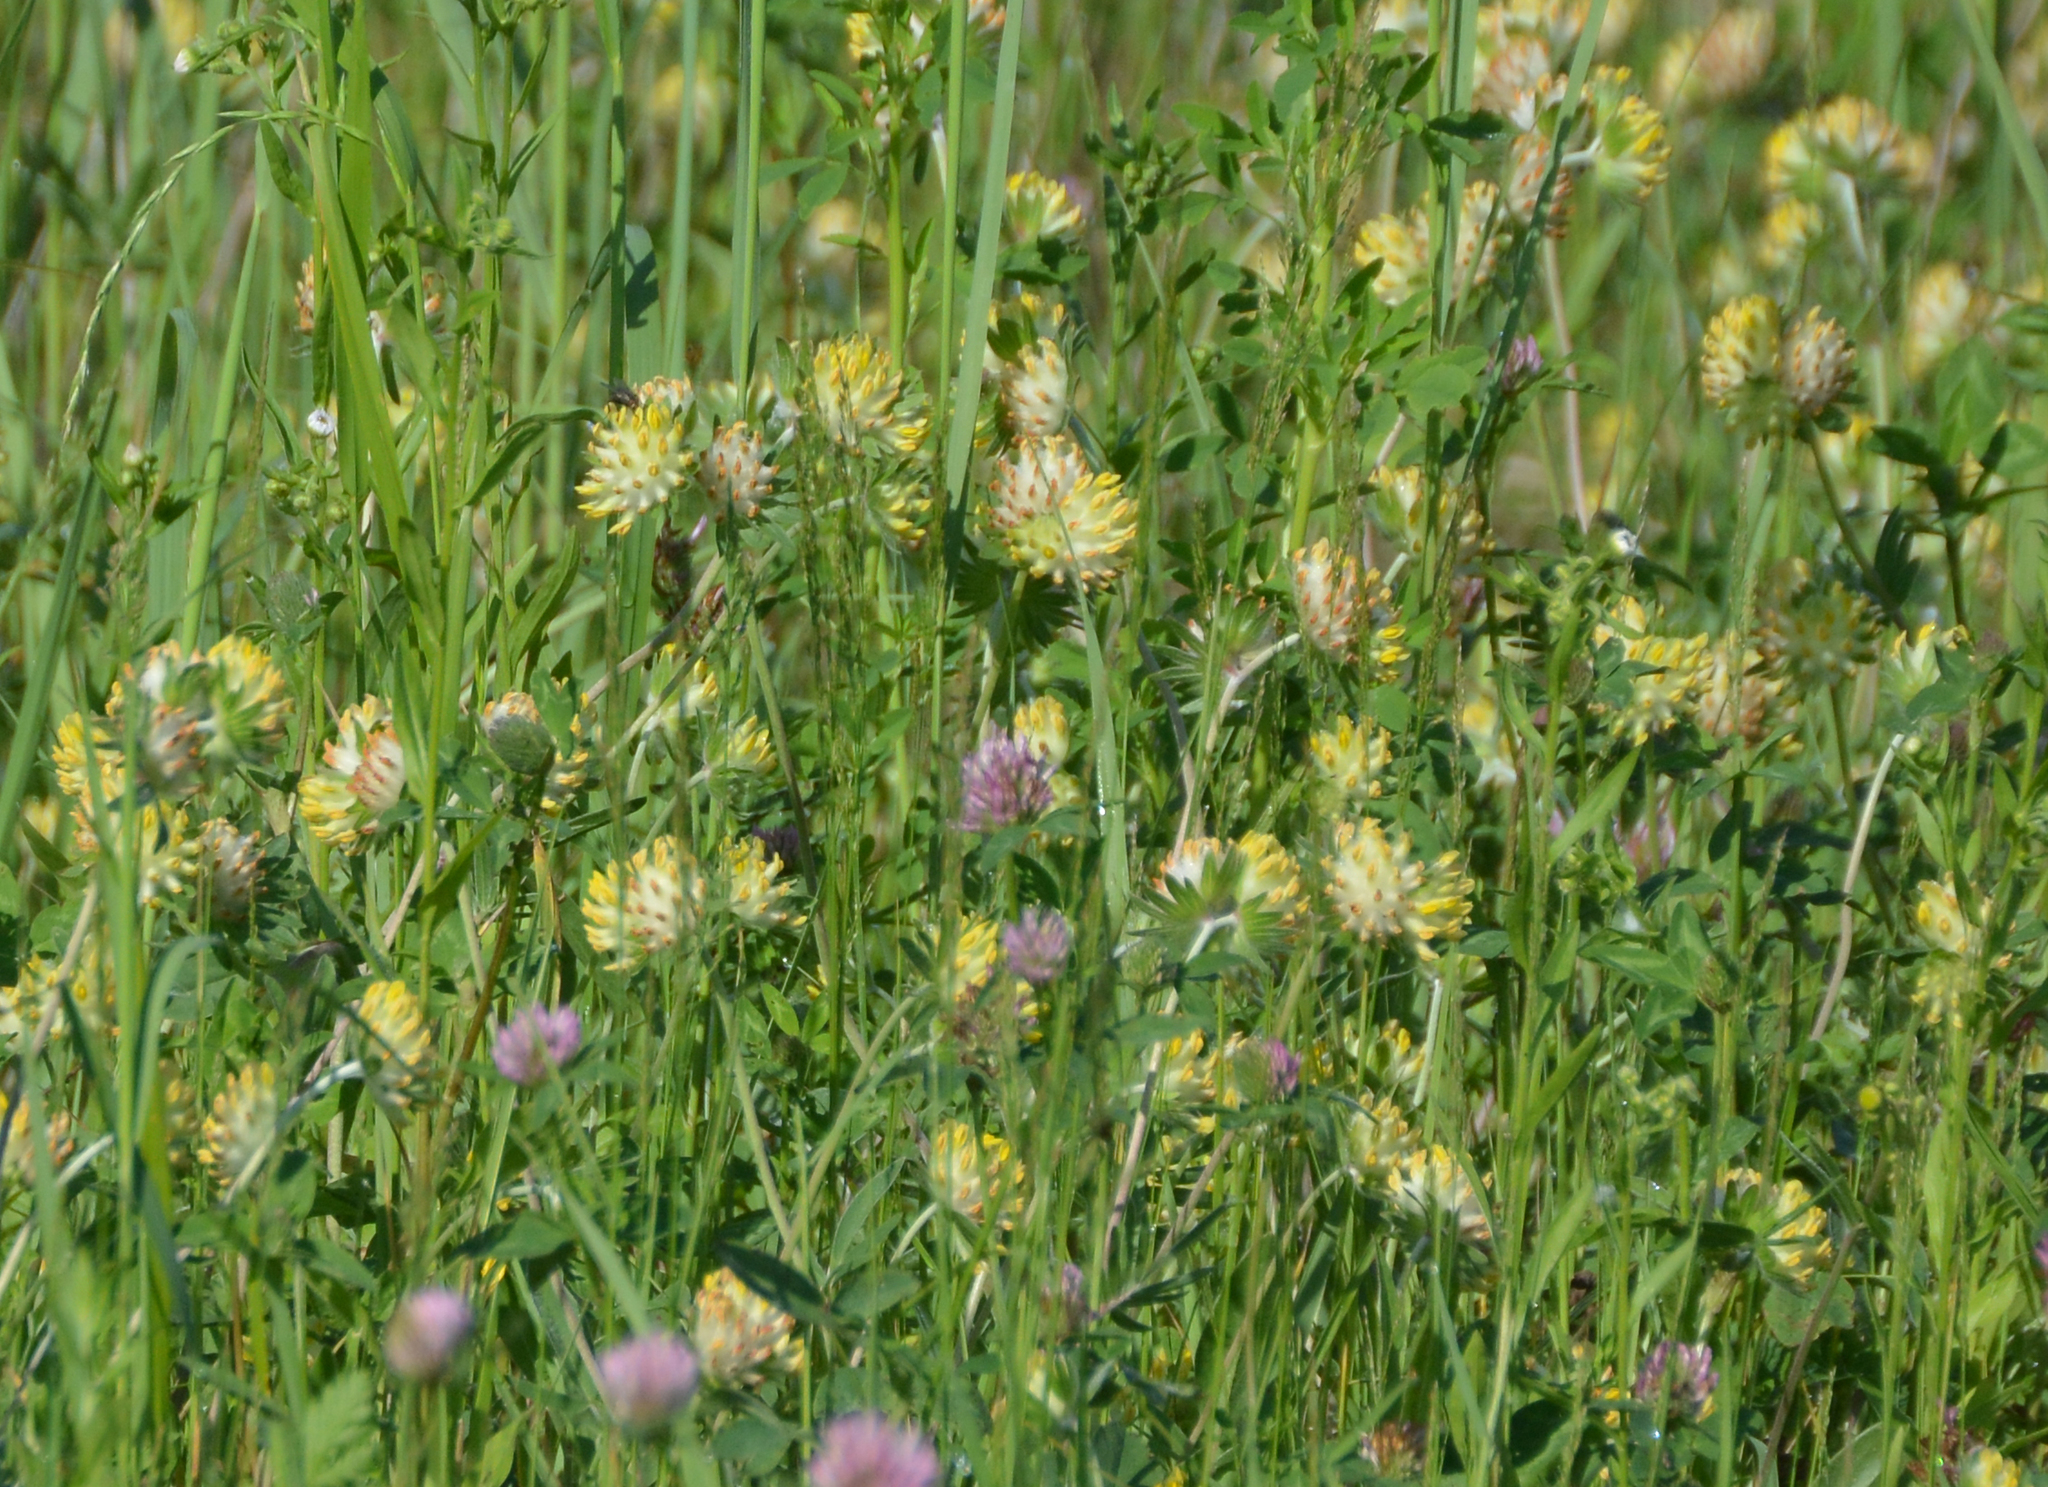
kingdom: Plantae
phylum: Tracheophyta
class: Magnoliopsida
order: Fabales
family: Fabaceae
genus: Anthyllis
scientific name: Anthyllis vulneraria
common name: Kidney vetch
